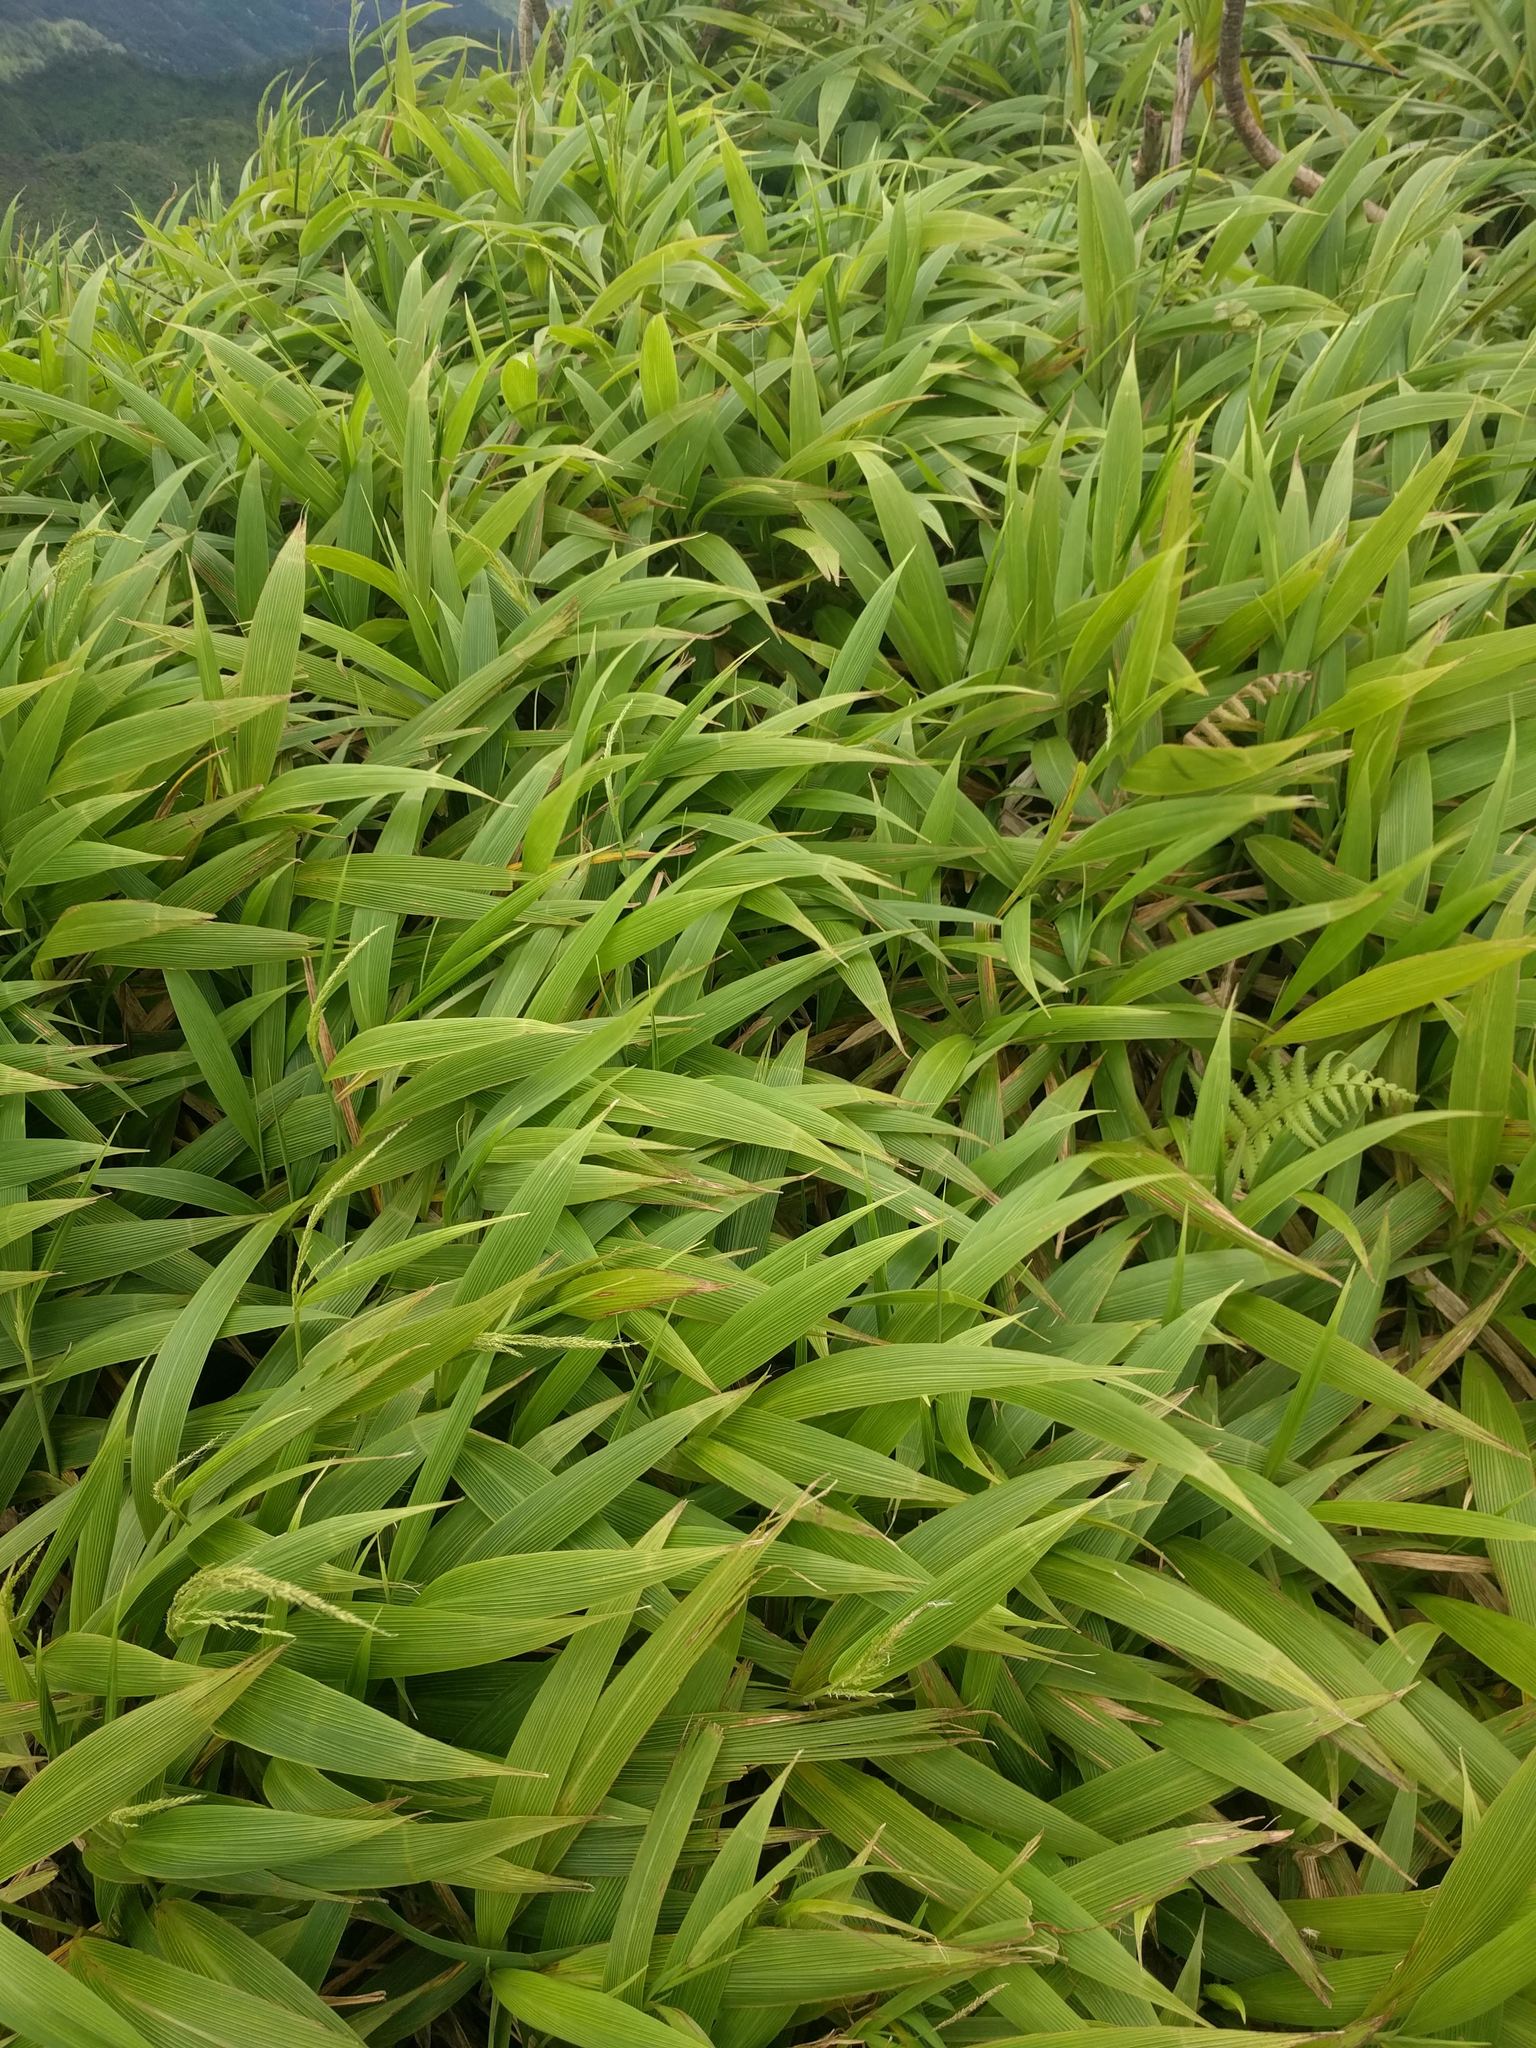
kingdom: Plantae
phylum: Tracheophyta
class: Liliopsida
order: Poales
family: Poaceae
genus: Setaria
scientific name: Setaria palmifolia
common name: Broadleaved bristlegrass
